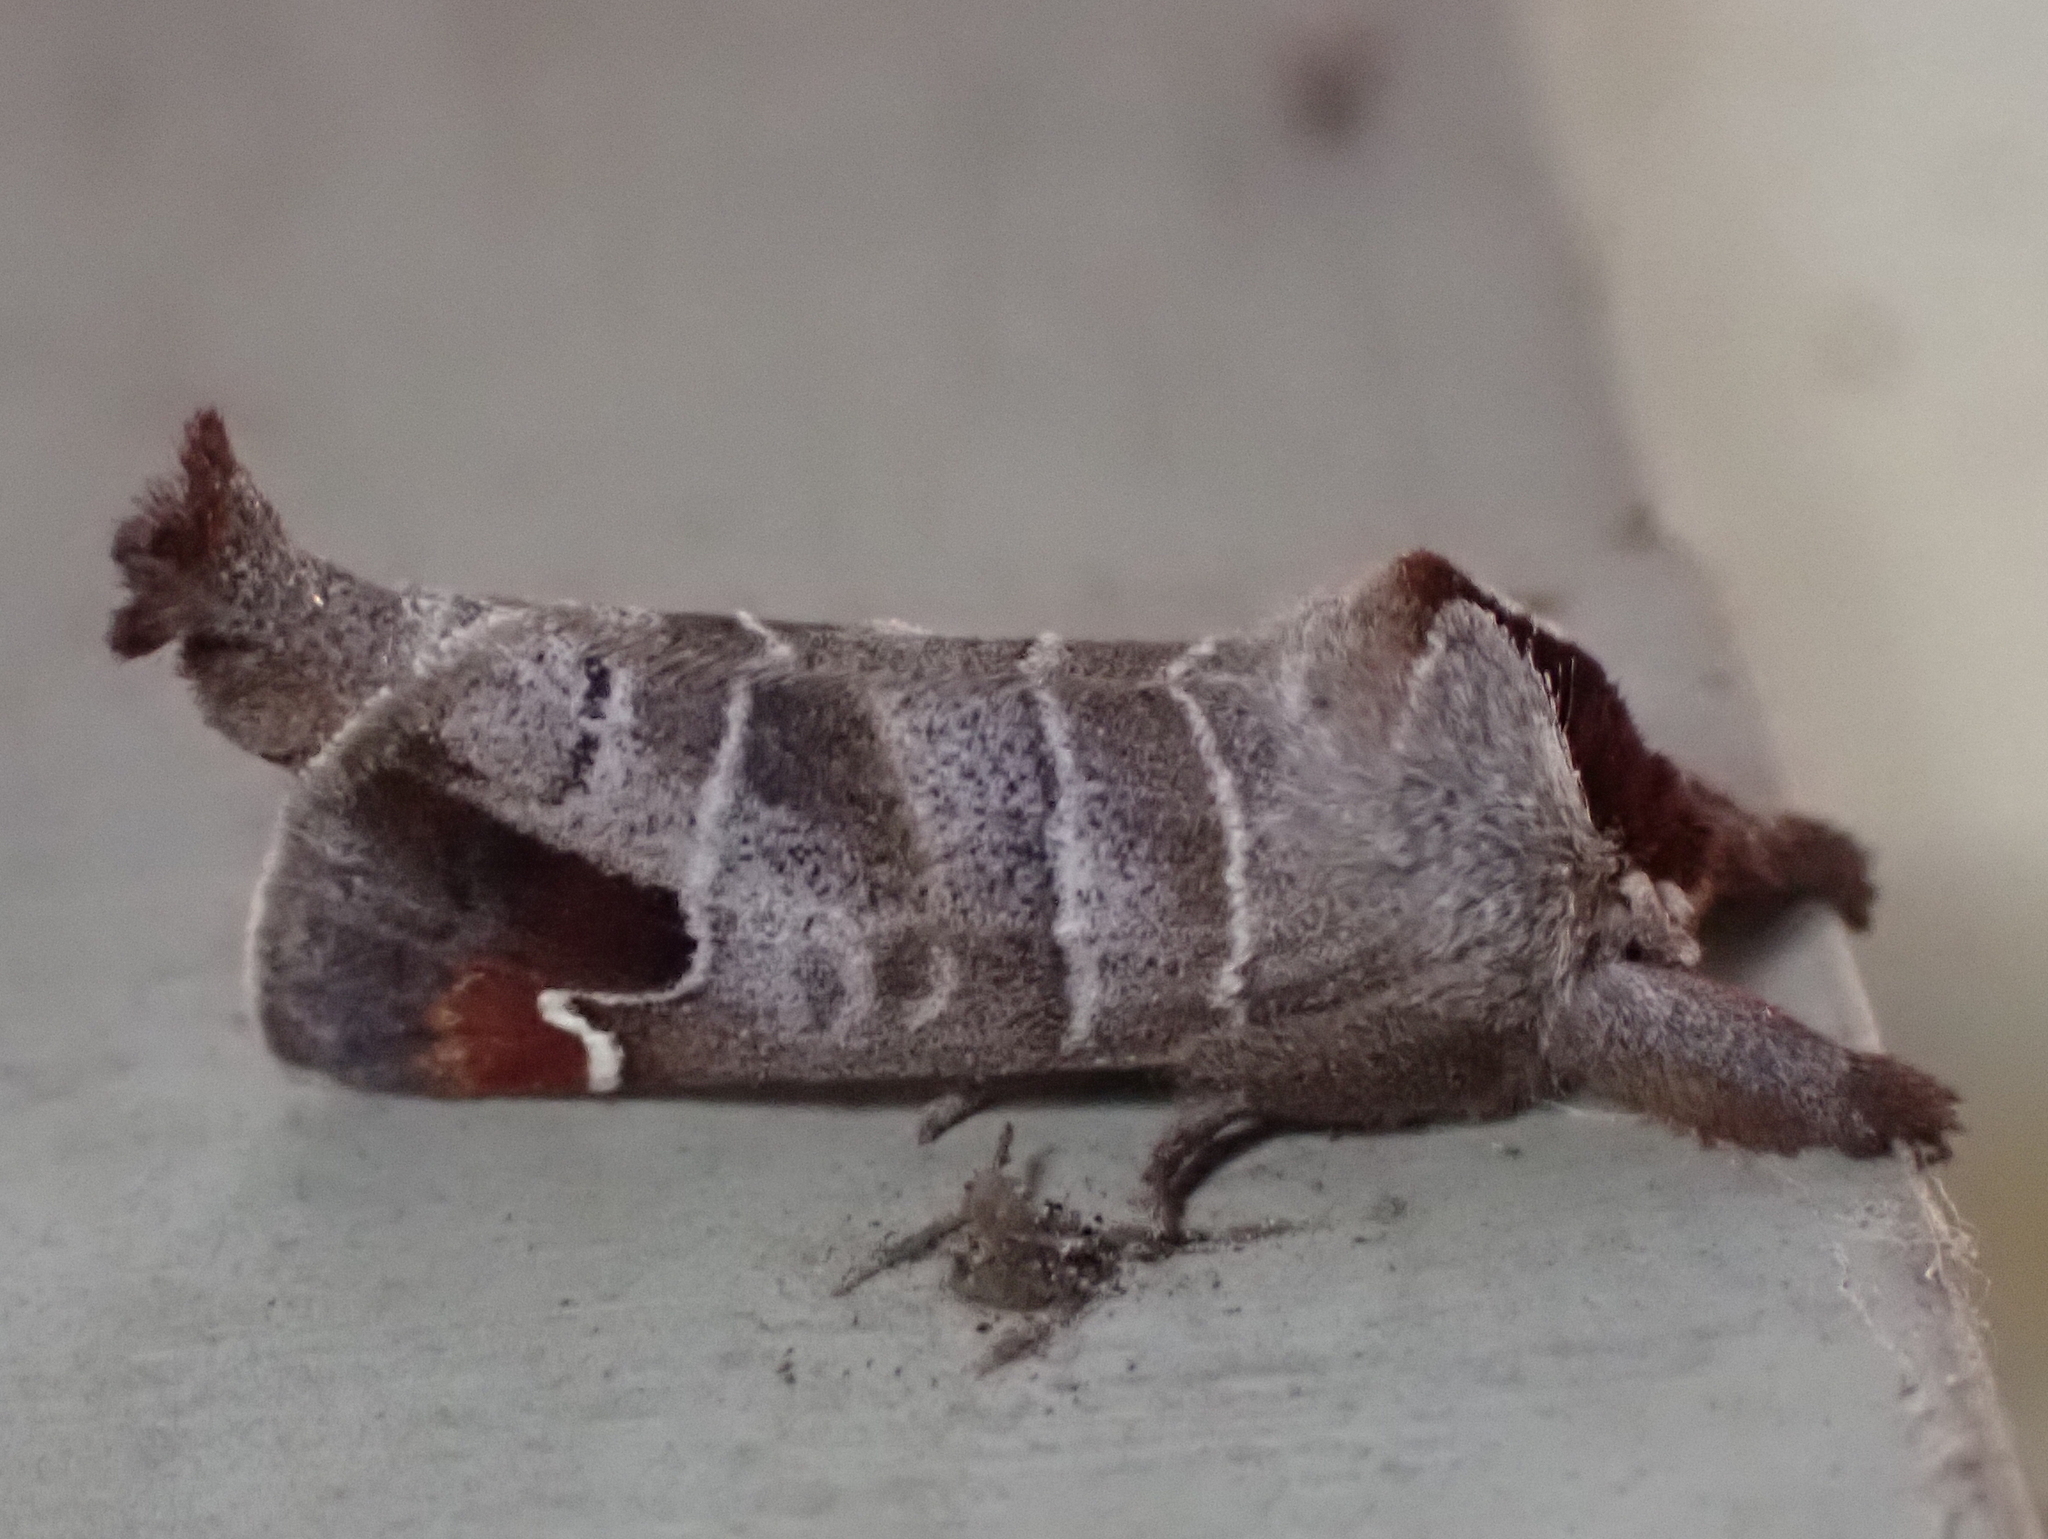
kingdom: Animalia
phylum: Arthropoda
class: Insecta
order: Lepidoptera
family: Notodontidae
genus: Clostera
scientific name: Clostera albosigma
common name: Sigmoid prominent
